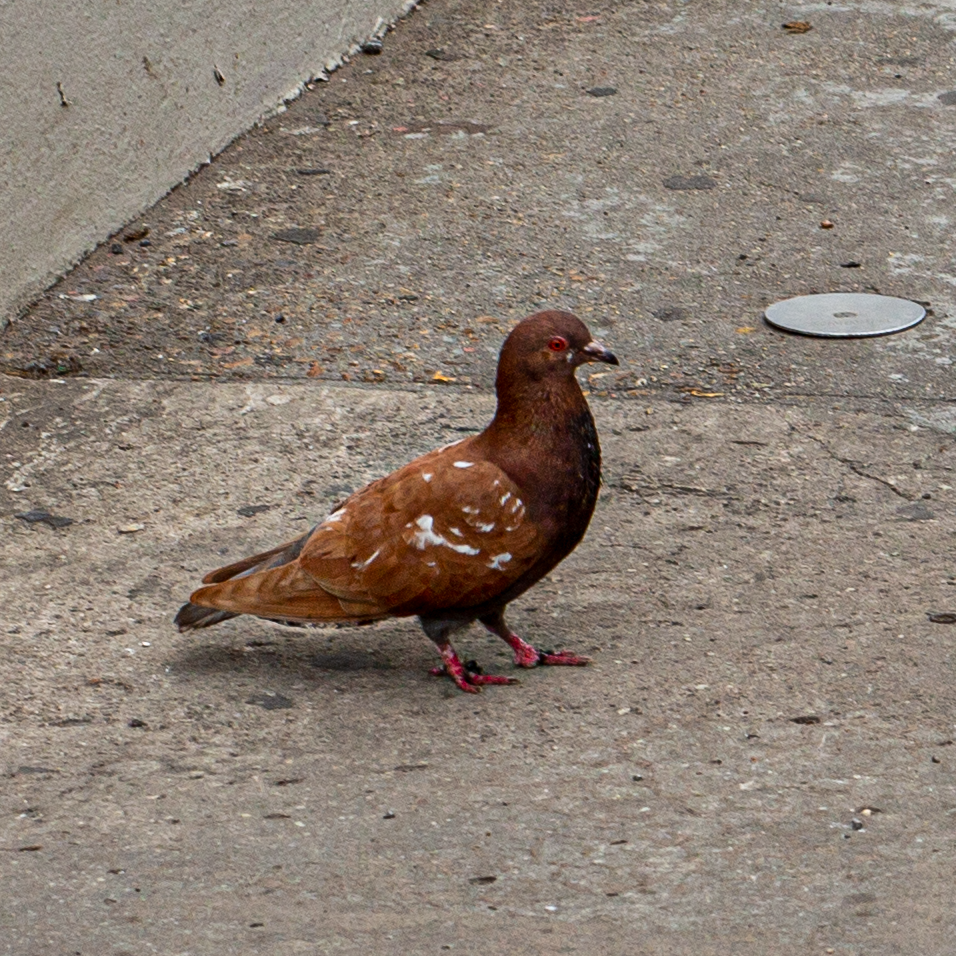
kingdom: Animalia
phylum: Chordata
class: Aves
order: Columbiformes
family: Columbidae
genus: Columba
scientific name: Columba livia
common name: Rock pigeon
